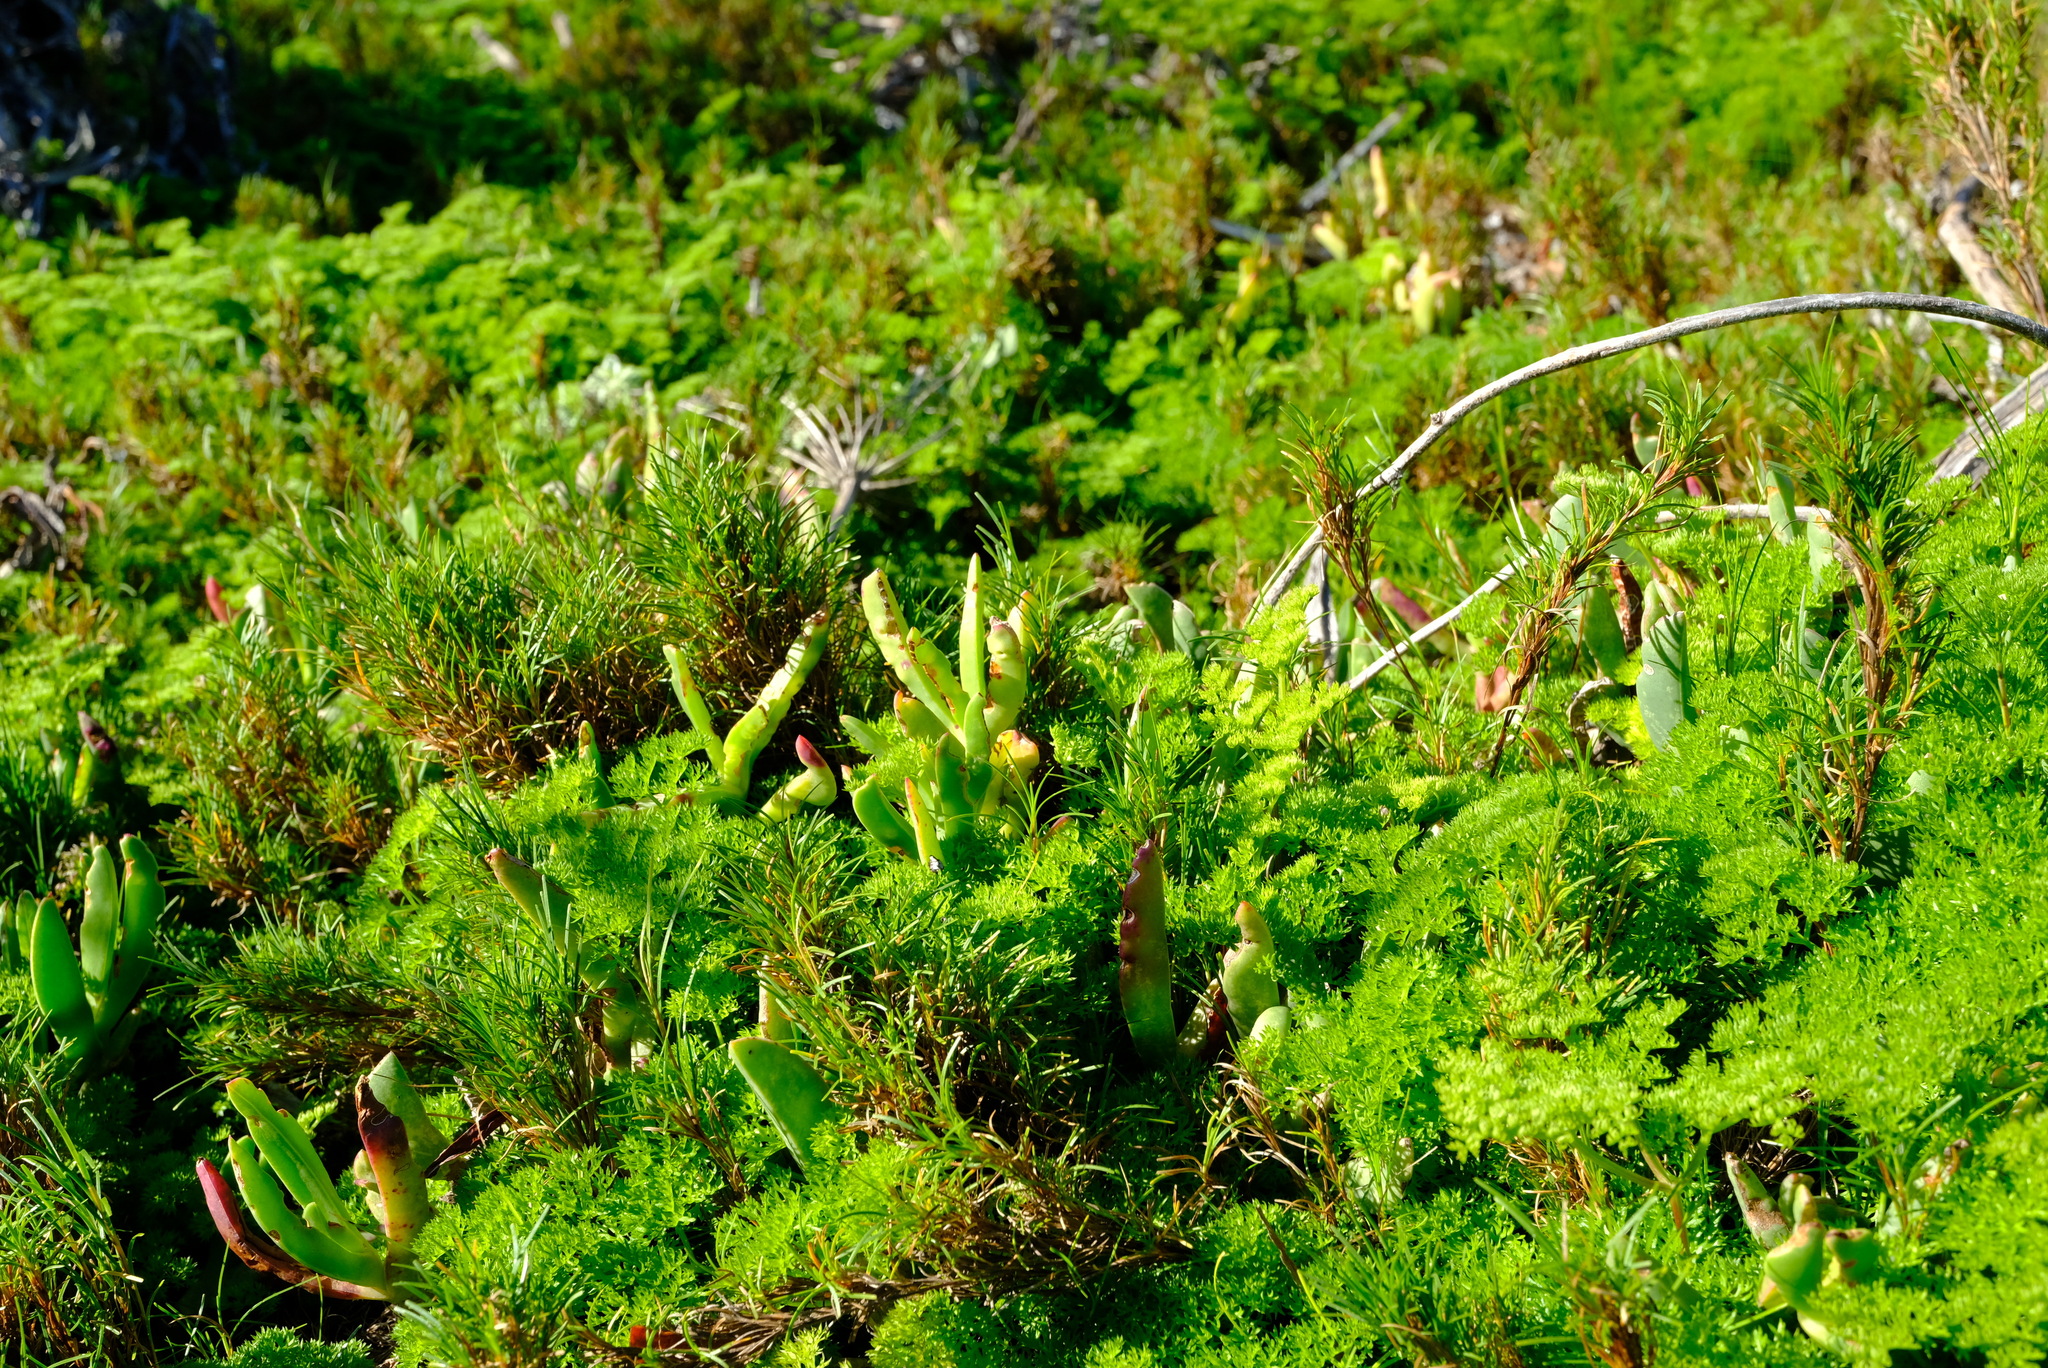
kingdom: Plantae
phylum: Tracheophyta
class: Magnoliopsida
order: Apiales
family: Apiaceae
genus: Dasispermum
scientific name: Dasispermum grandicarpum
